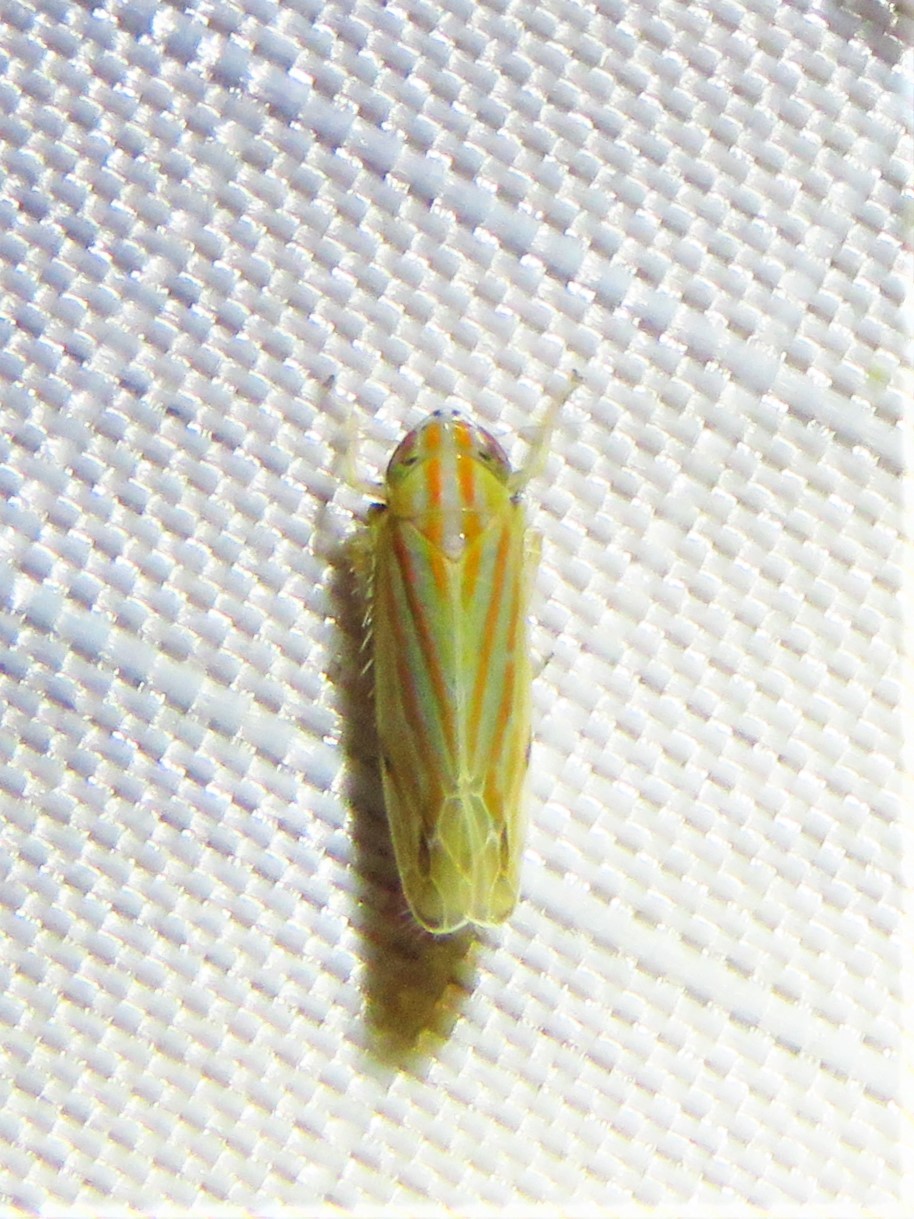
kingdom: Animalia
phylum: Arthropoda
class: Insecta
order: Hemiptera
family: Cicadellidae
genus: Deltanus
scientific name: Deltanus texanus
